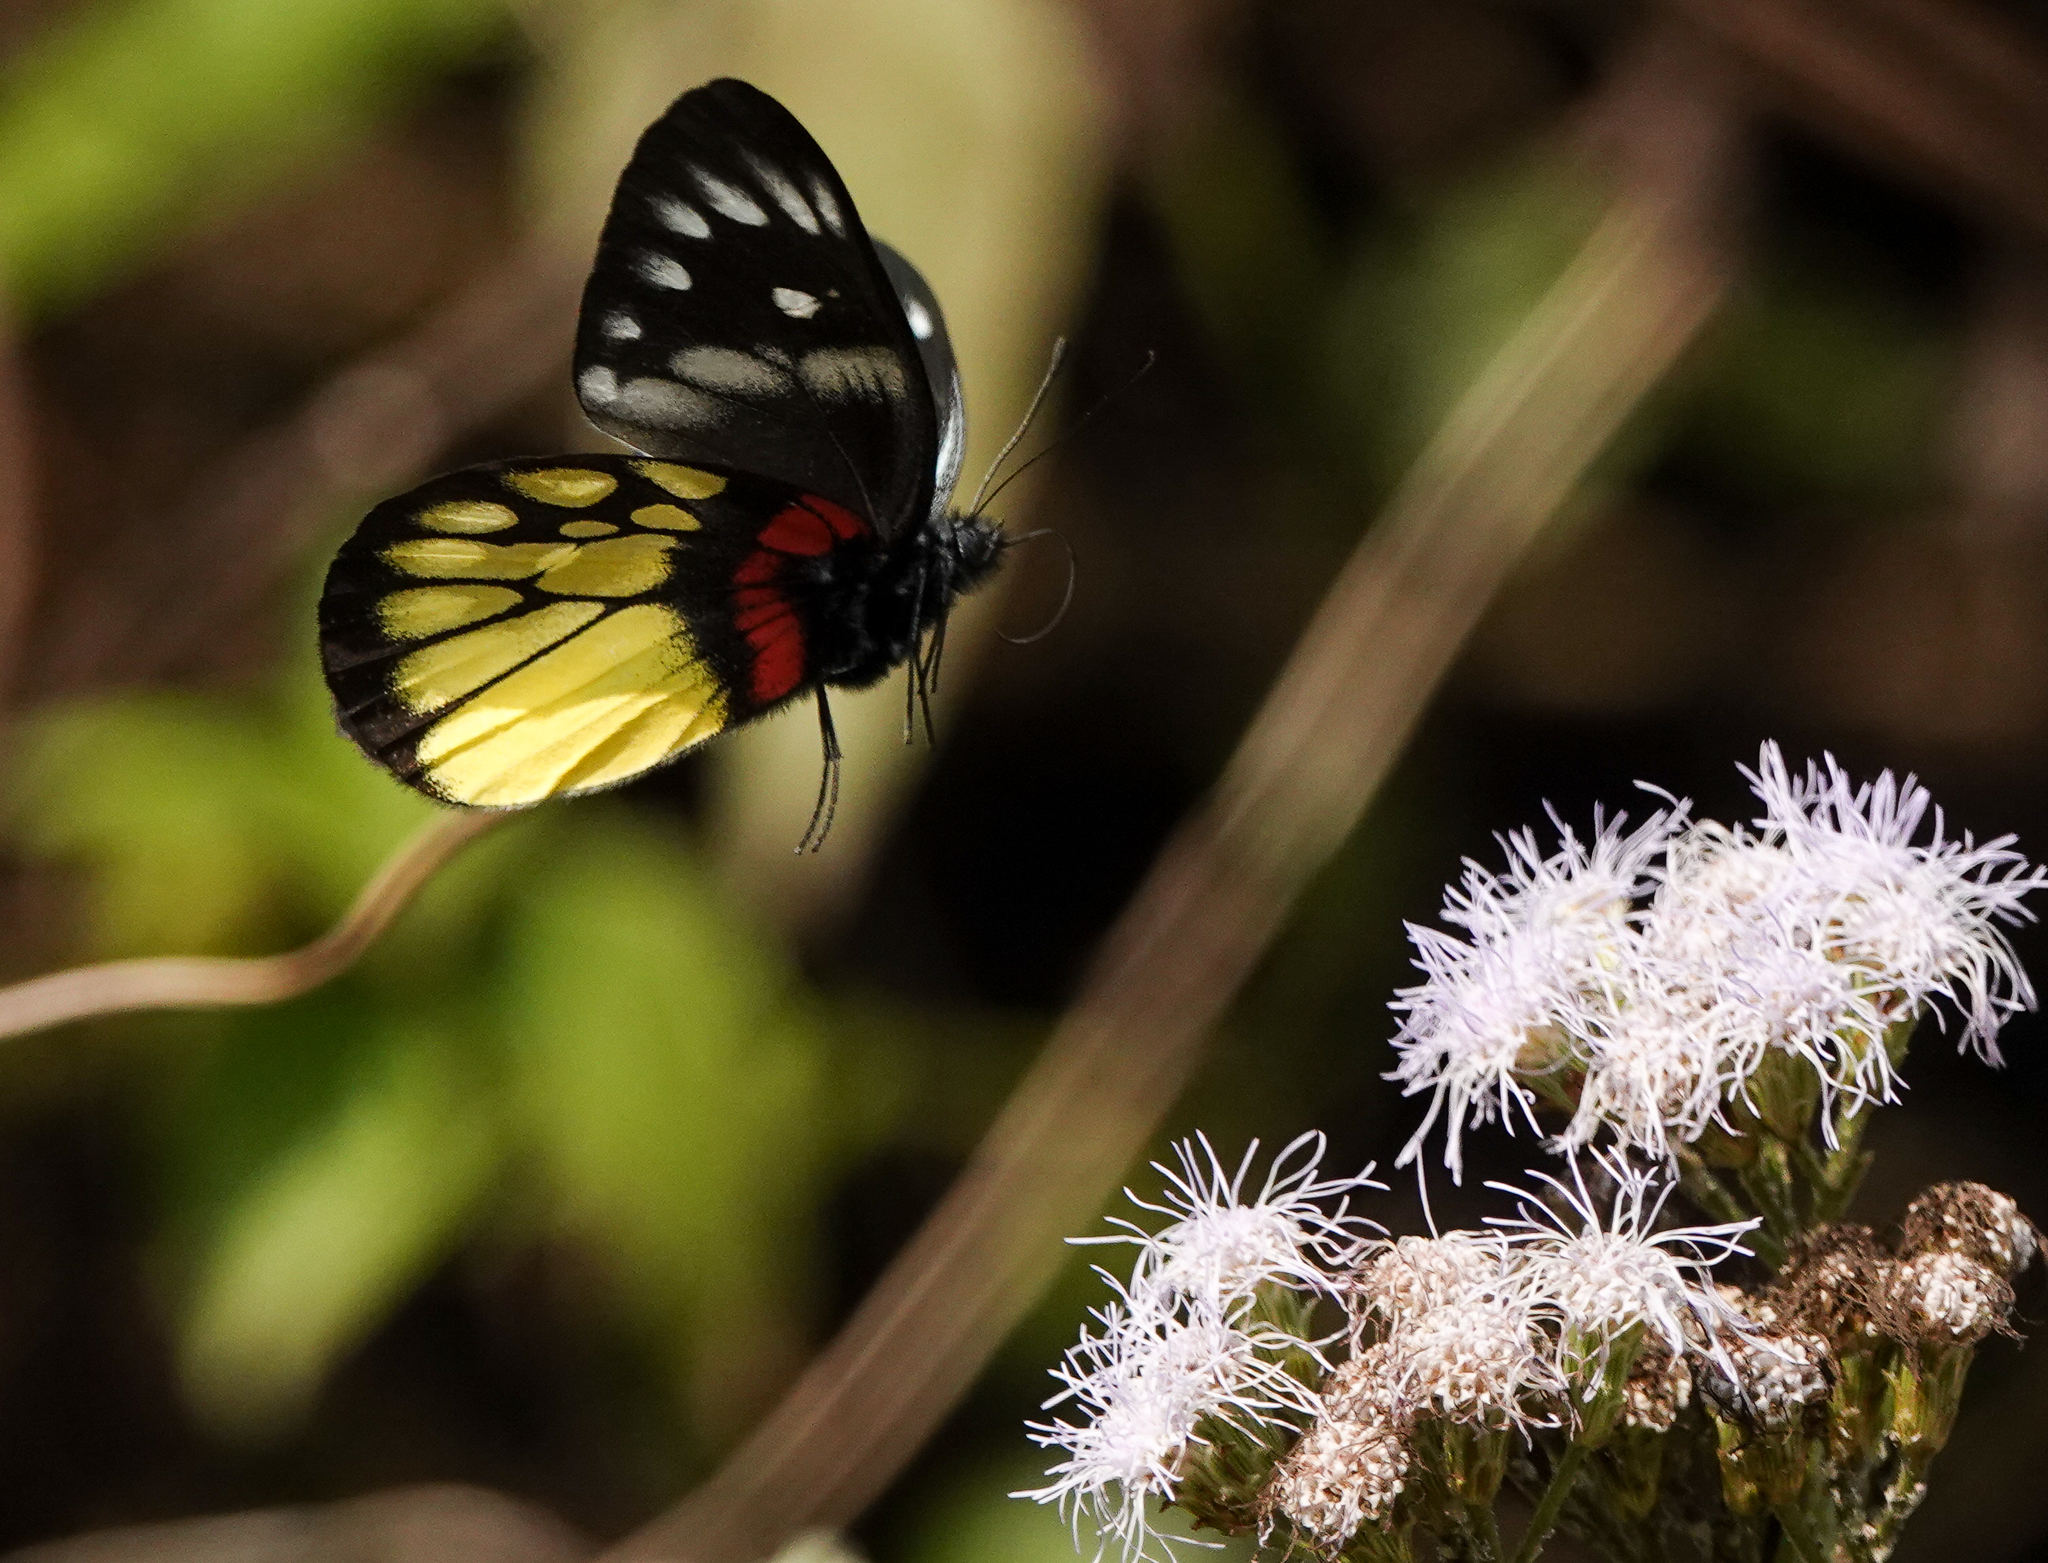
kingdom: Animalia
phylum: Arthropoda
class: Insecta
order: Lepidoptera
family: Pieridae
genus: Delias
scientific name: Delias pasithoe
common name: Red-base jezebel
